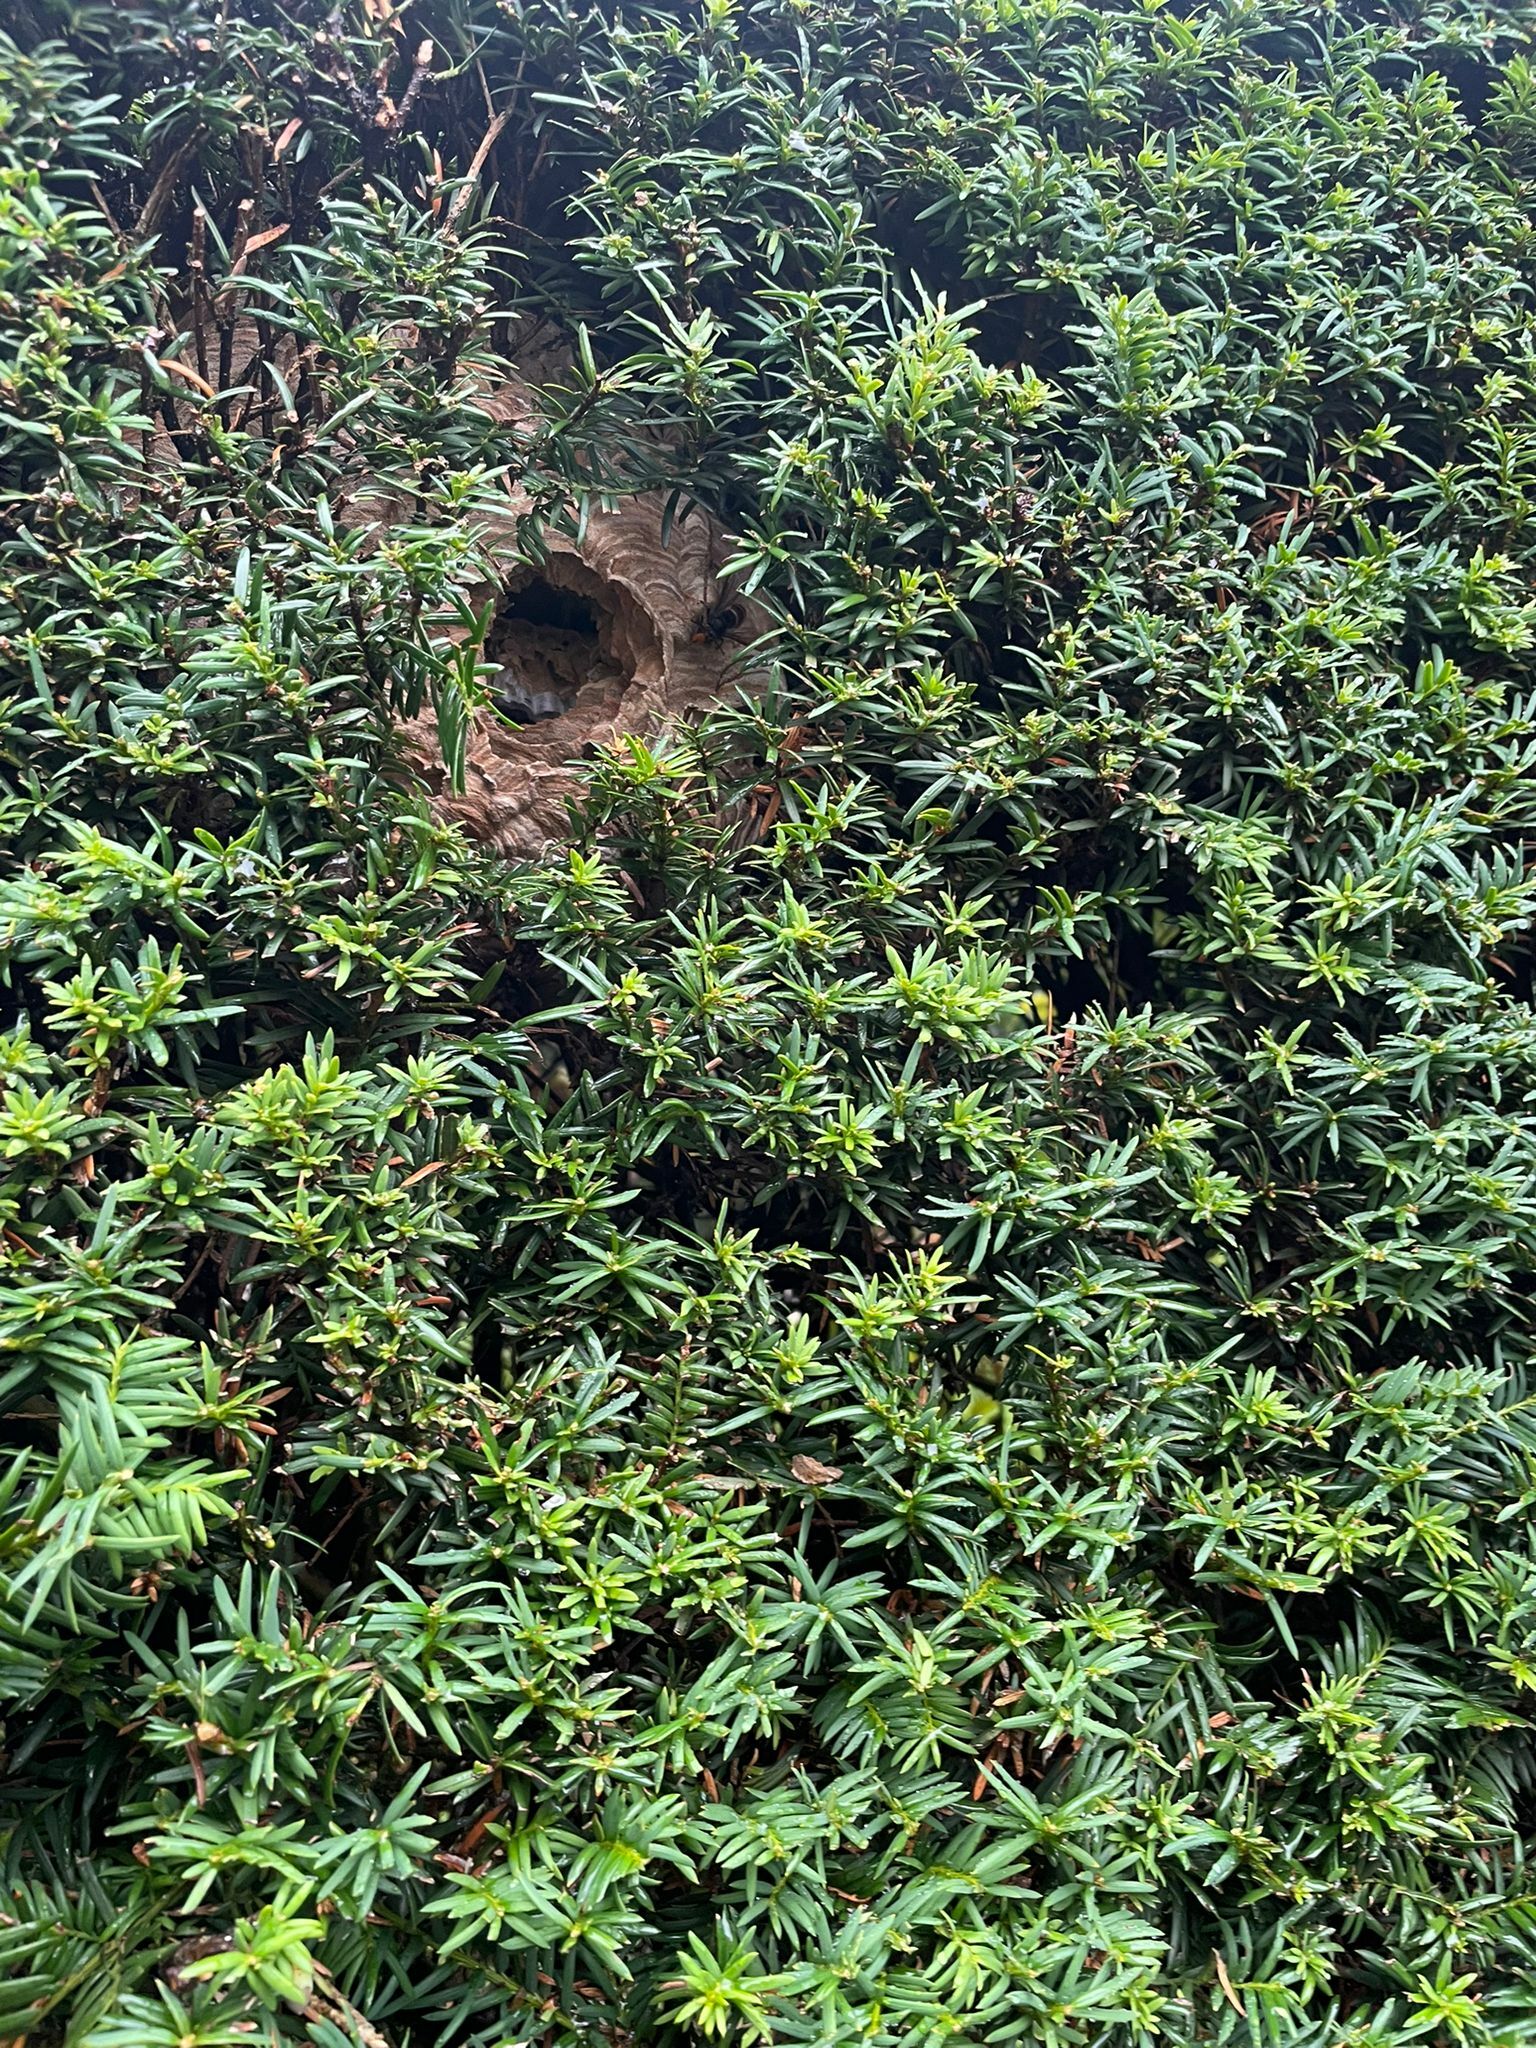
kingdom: Animalia
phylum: Arthropoda
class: Insecta
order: Hymenoptera
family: Vespidae
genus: Vespa
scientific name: Vespa velutina
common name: Asian hornet
